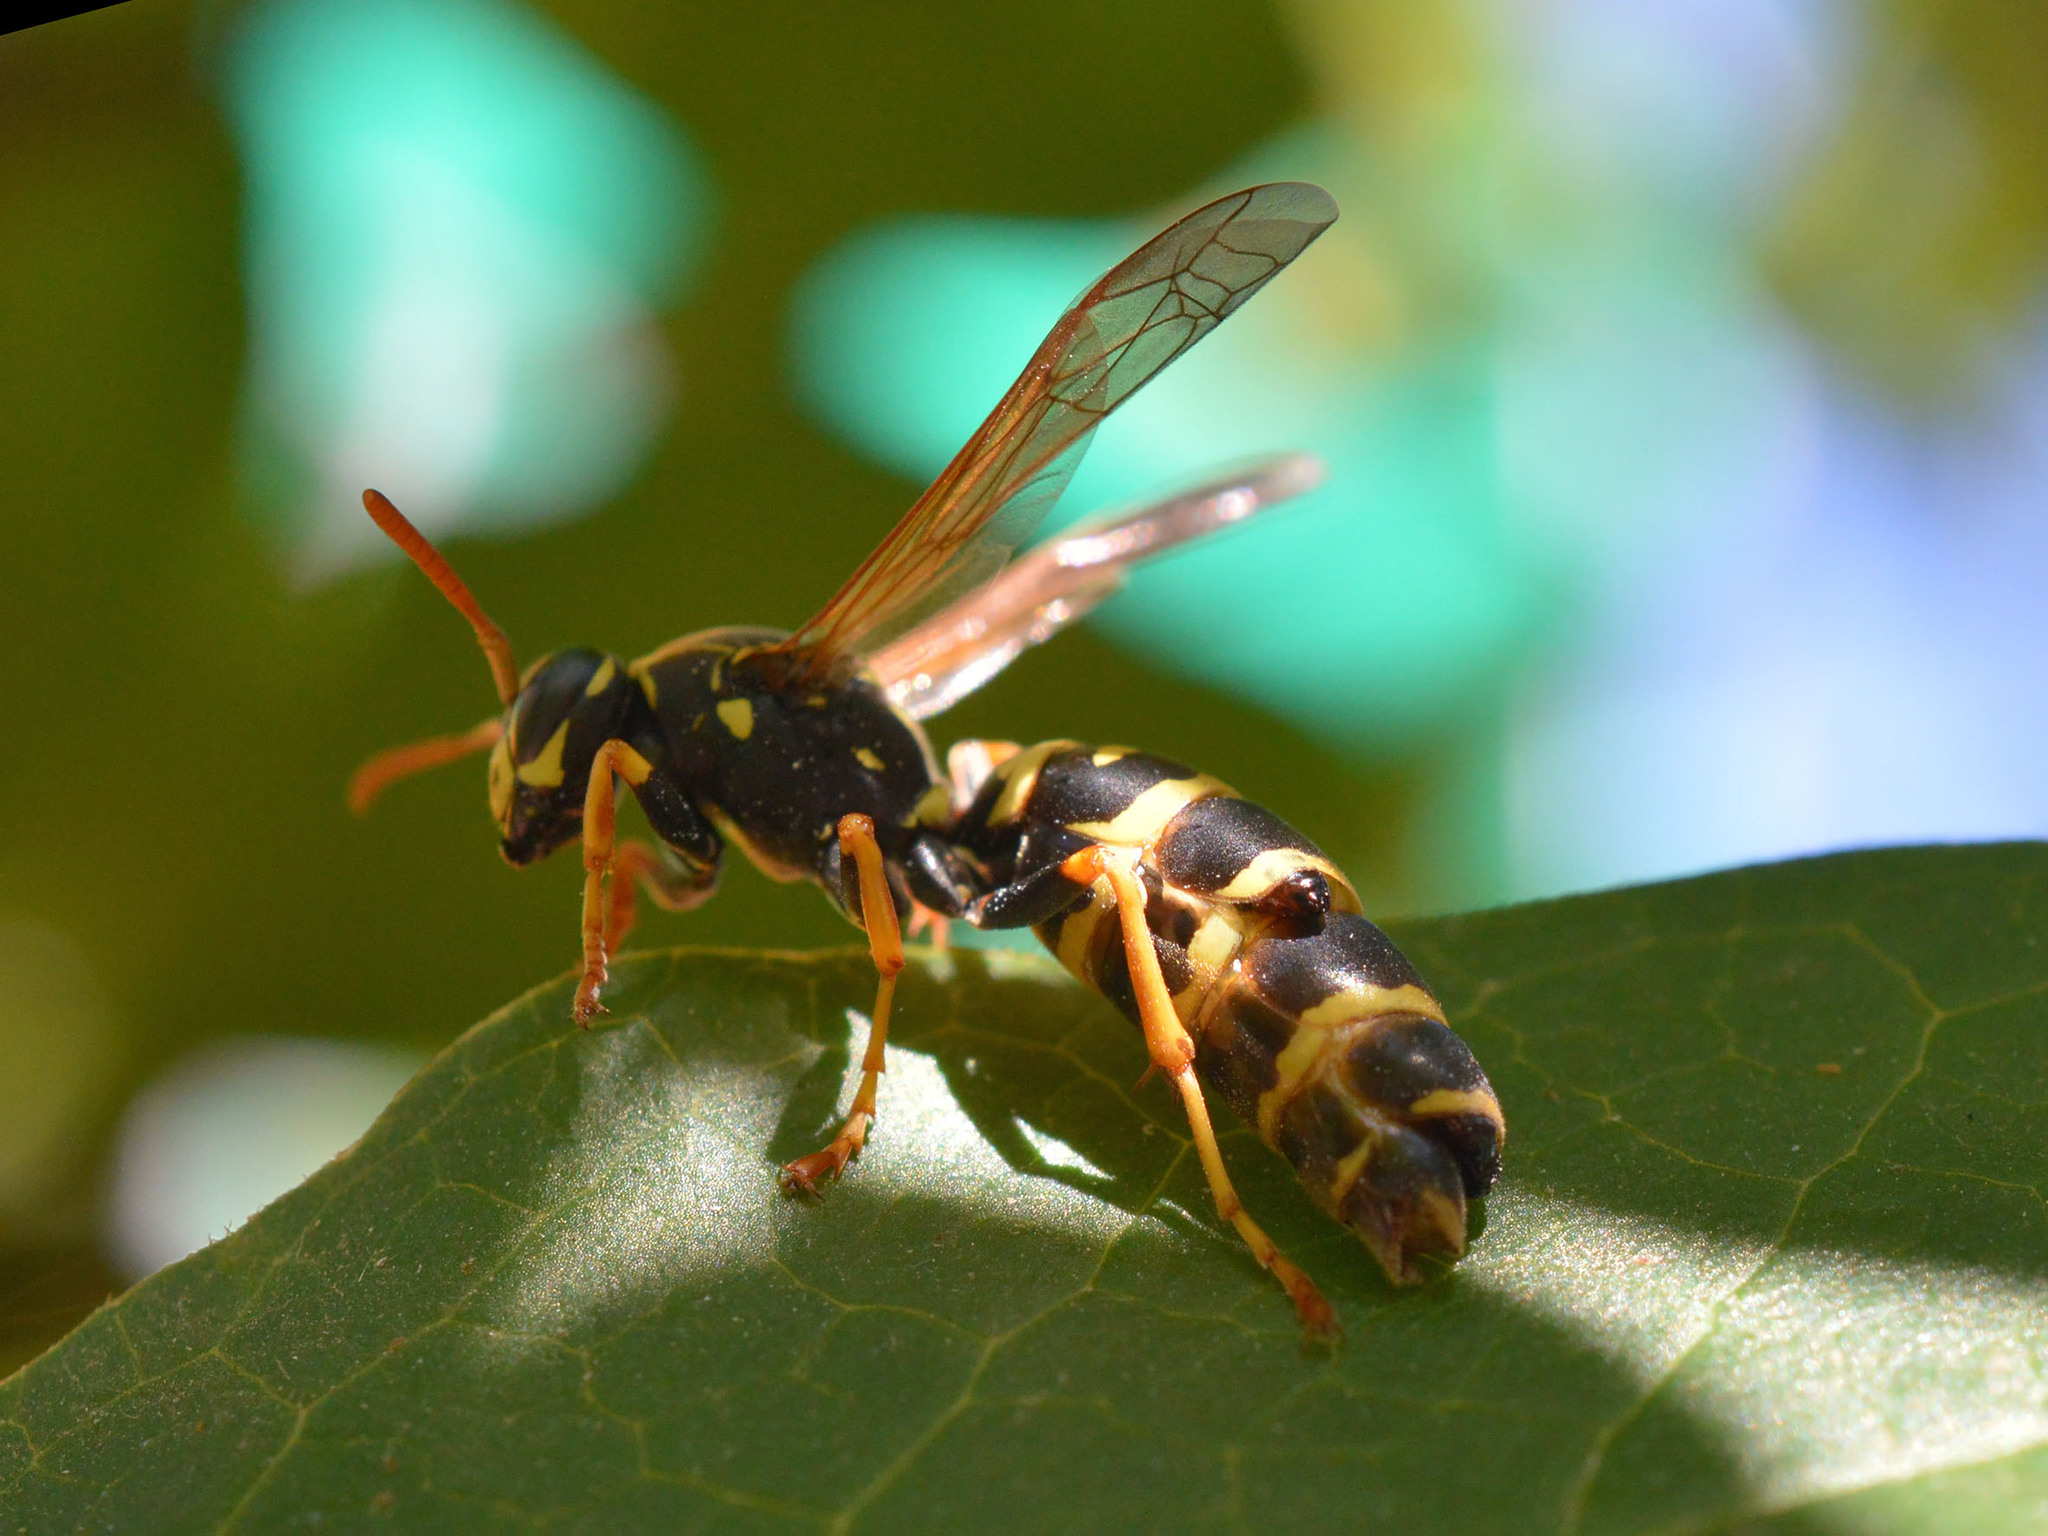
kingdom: Animalia
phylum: Arthropoda
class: Insecta
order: Strepsiptera
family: Xenidae
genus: Xenos
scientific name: Xenos vesparum
